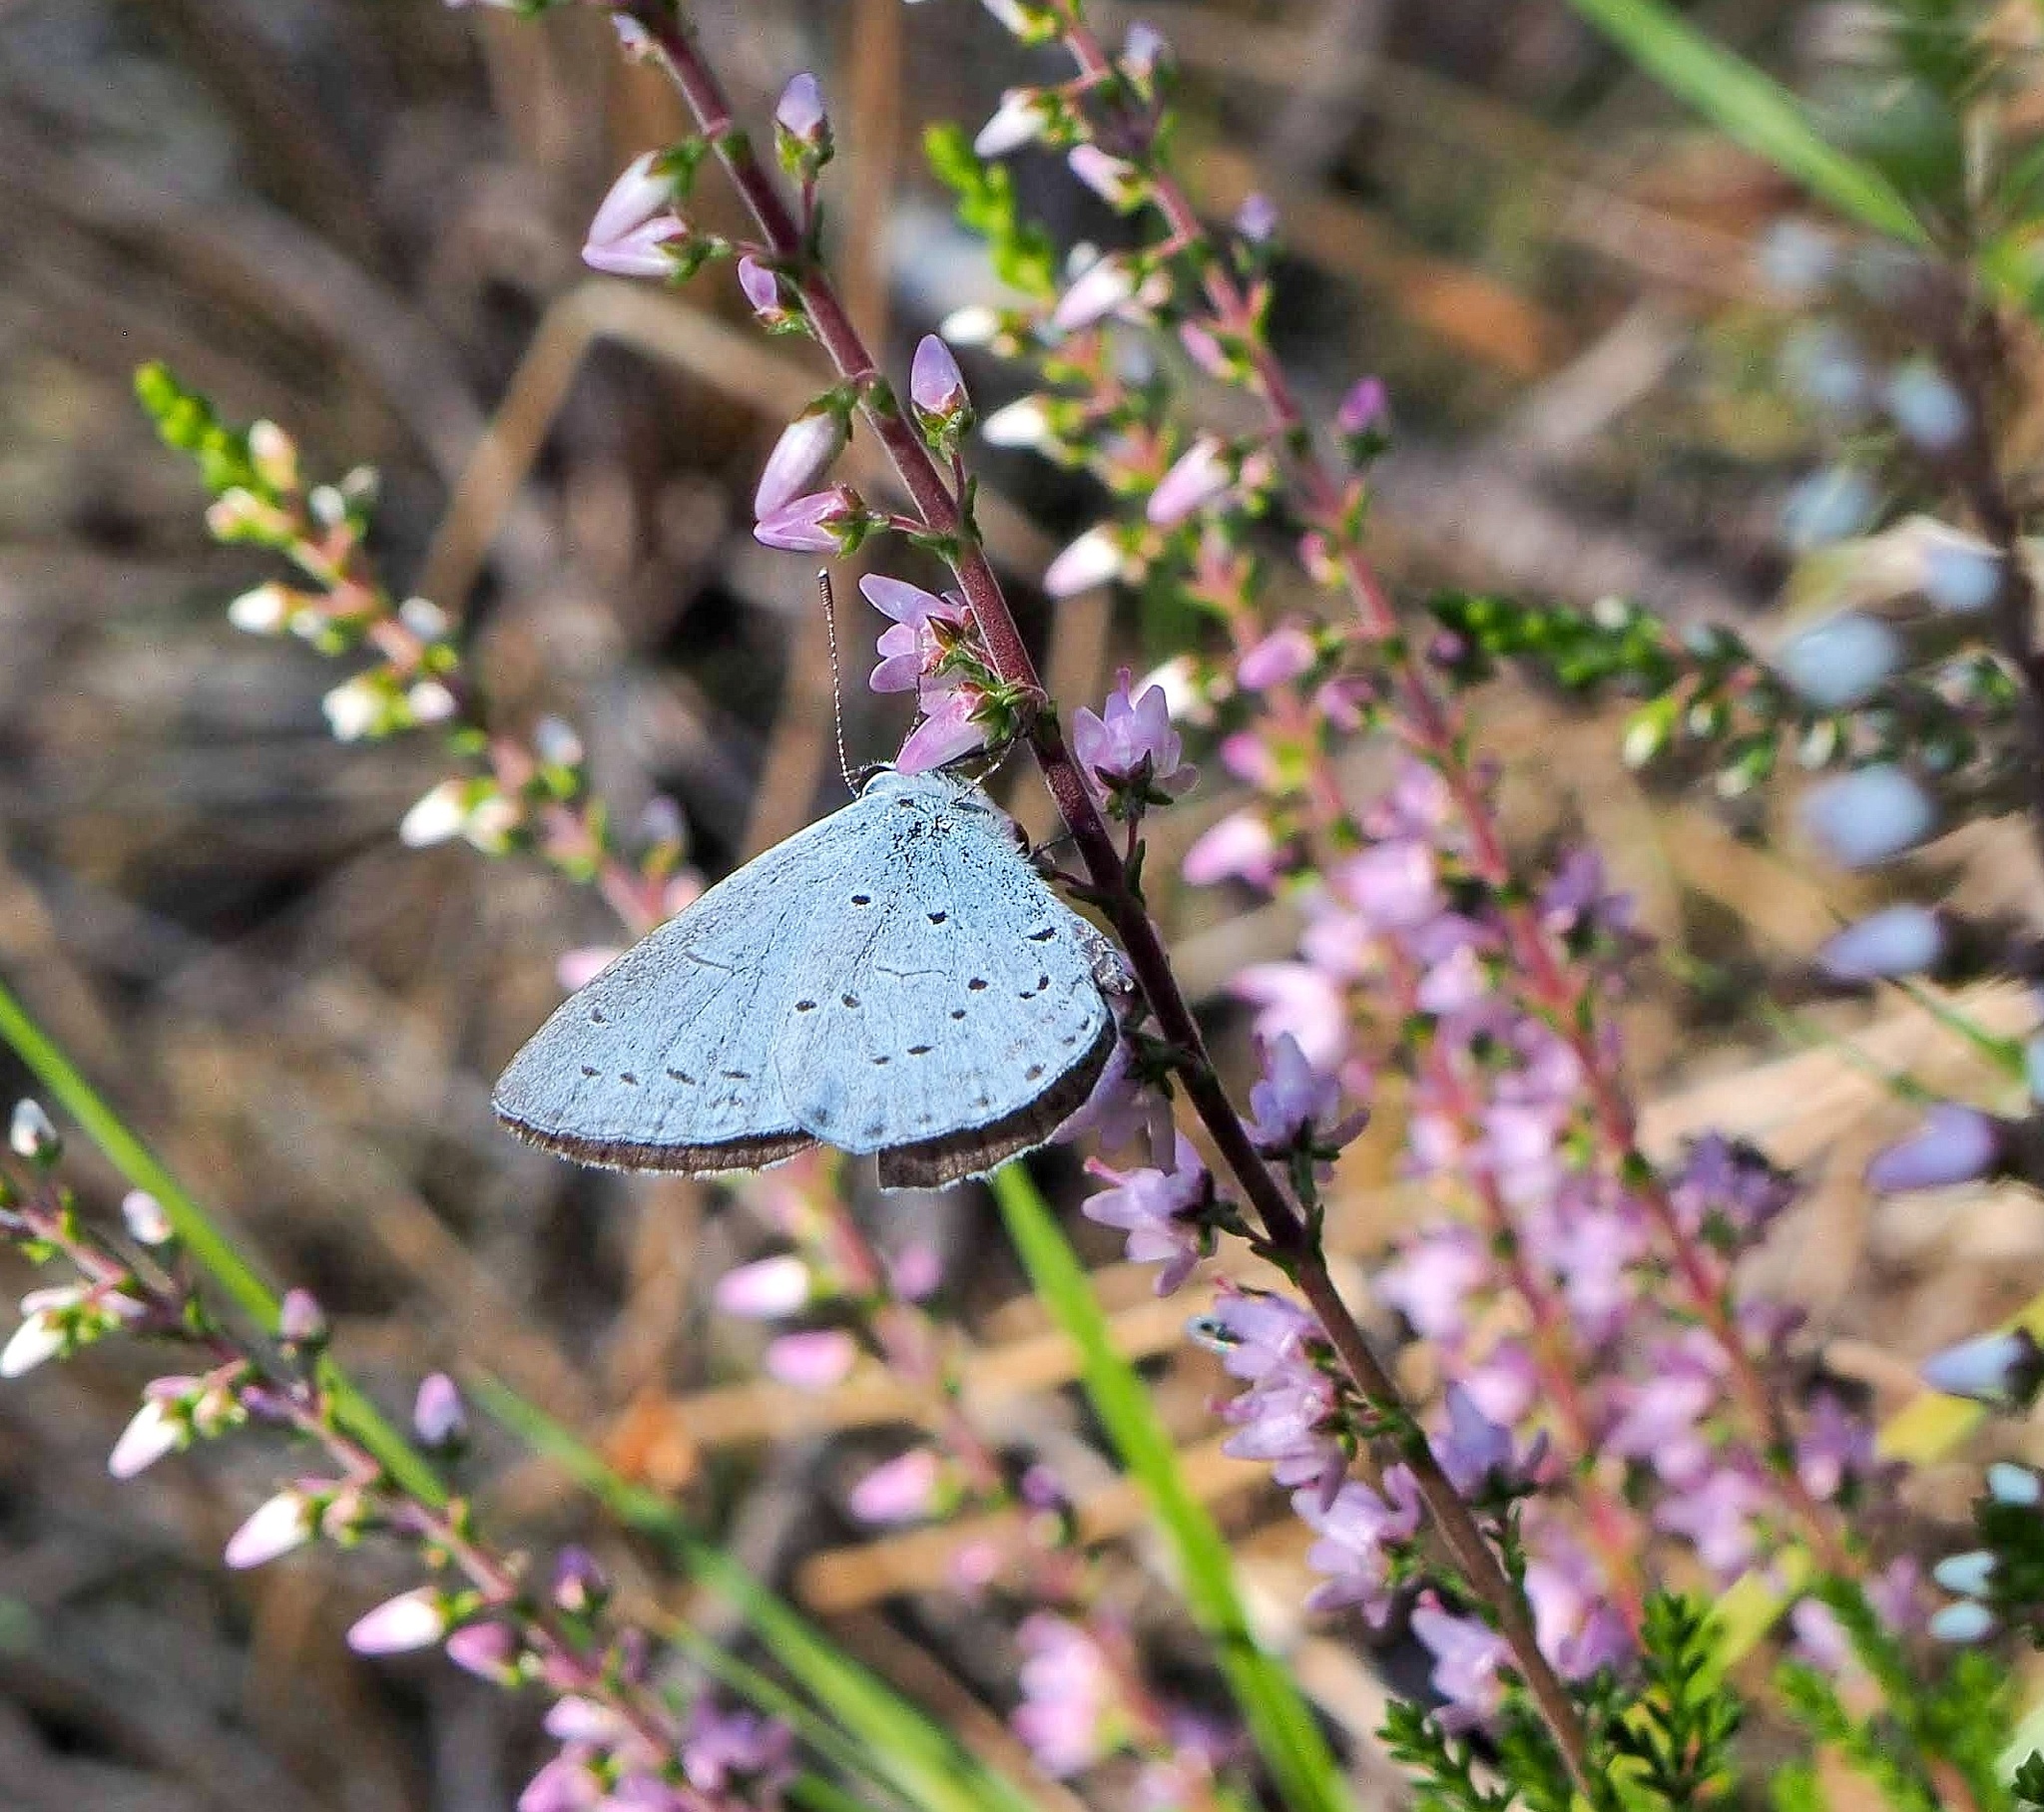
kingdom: Animalia
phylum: Arthropoda
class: Insecta
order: Lepidoptera
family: Lycaenidae
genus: Celastrina
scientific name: Celastrina argiolus
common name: Holly blue
